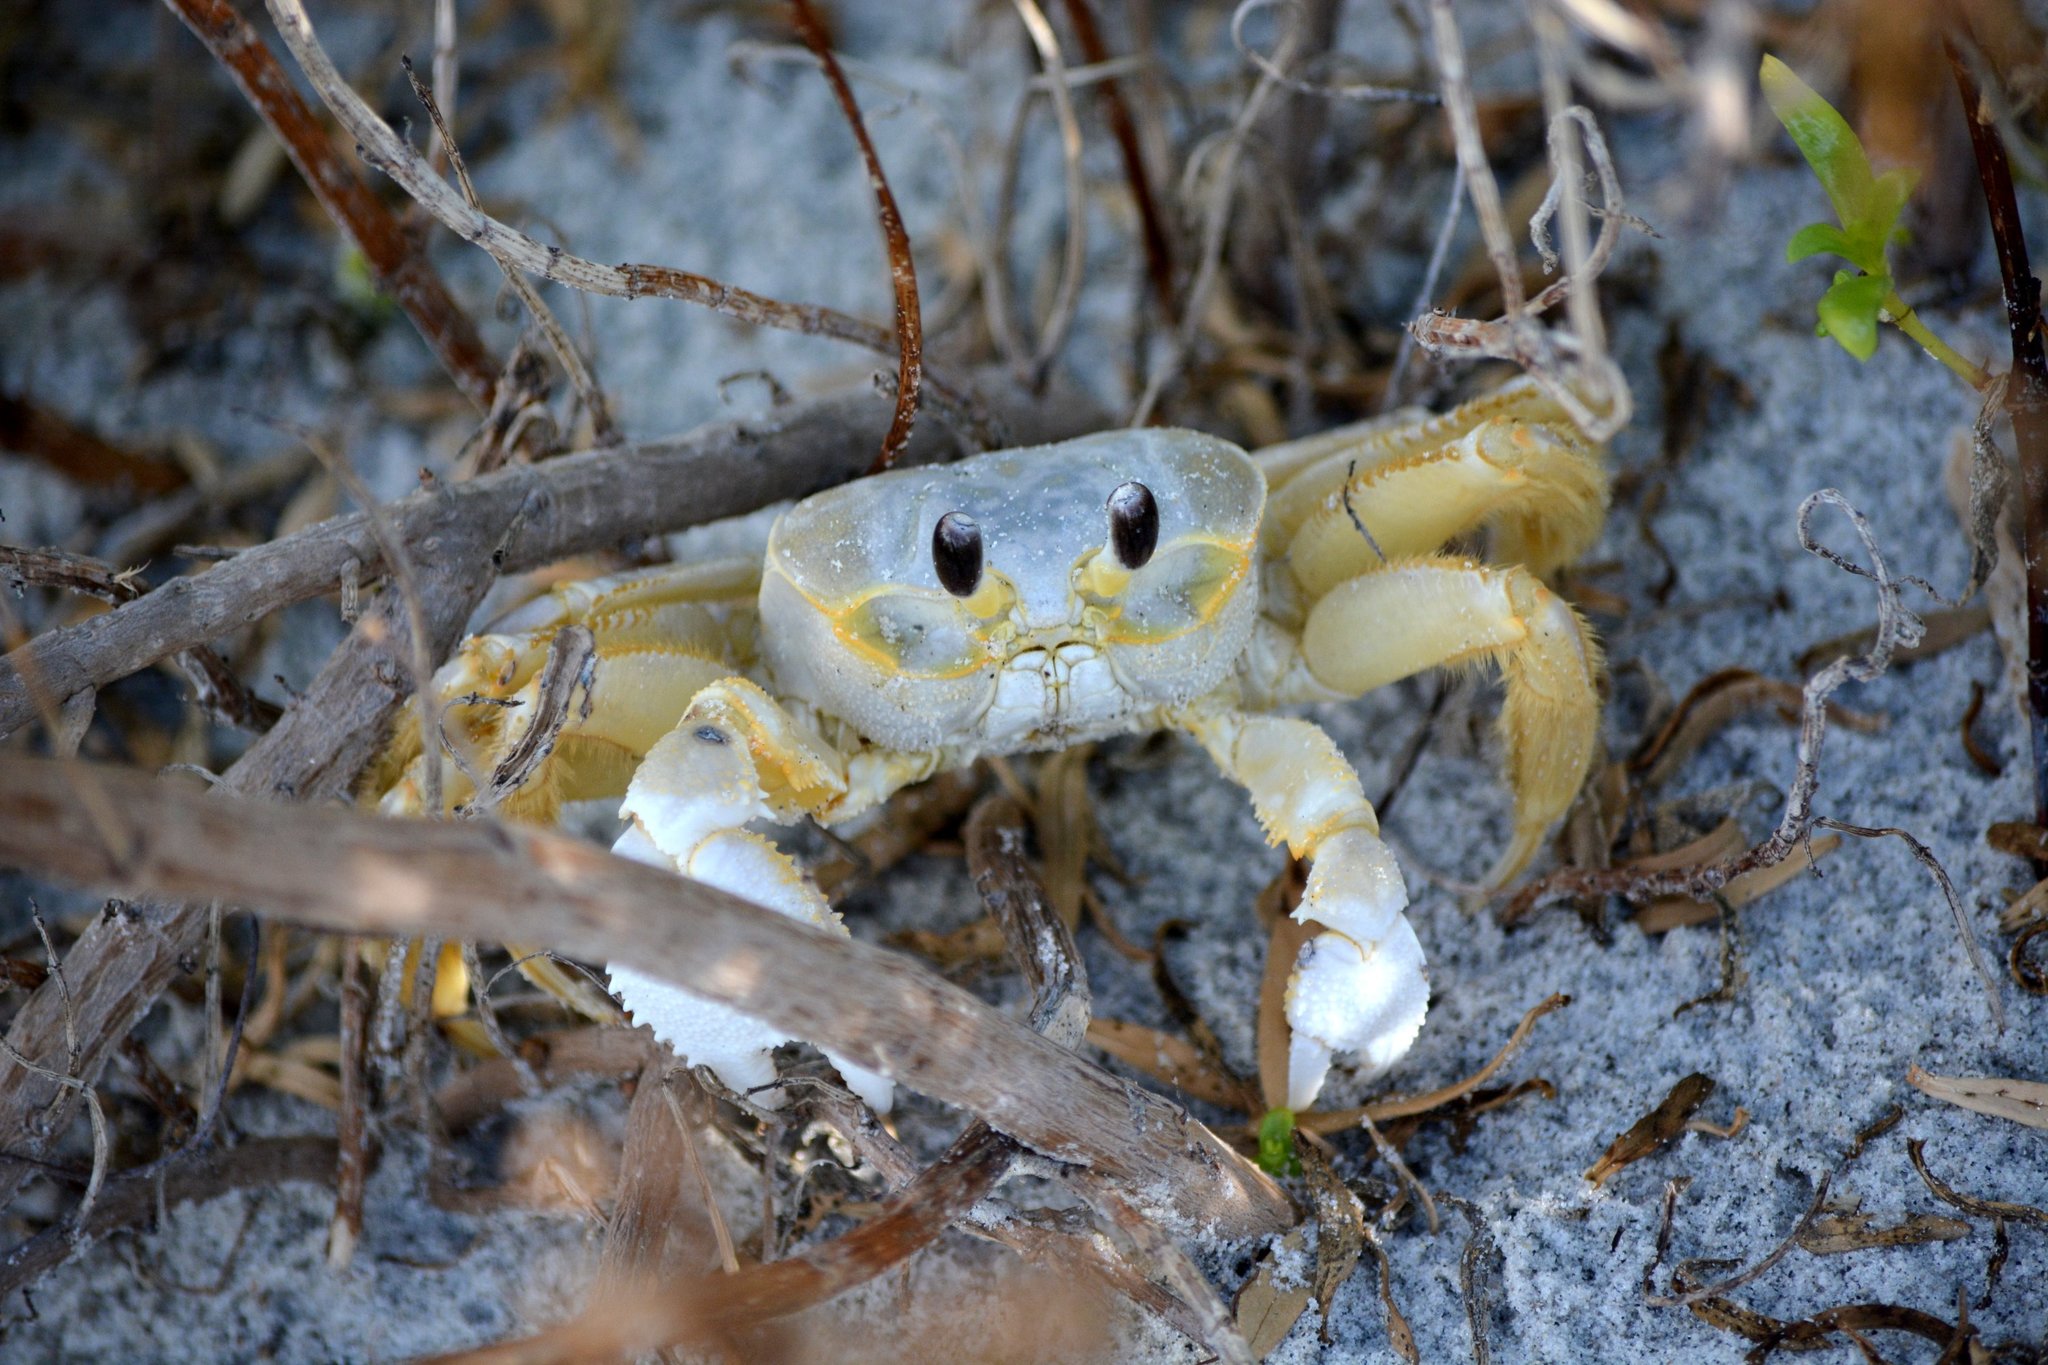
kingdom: Animalia
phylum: Arthropoda
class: Malacostraca
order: Decapoda
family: Ocypodidae
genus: Ocypode
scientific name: Ocypode quadrata
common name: Ghost crab
